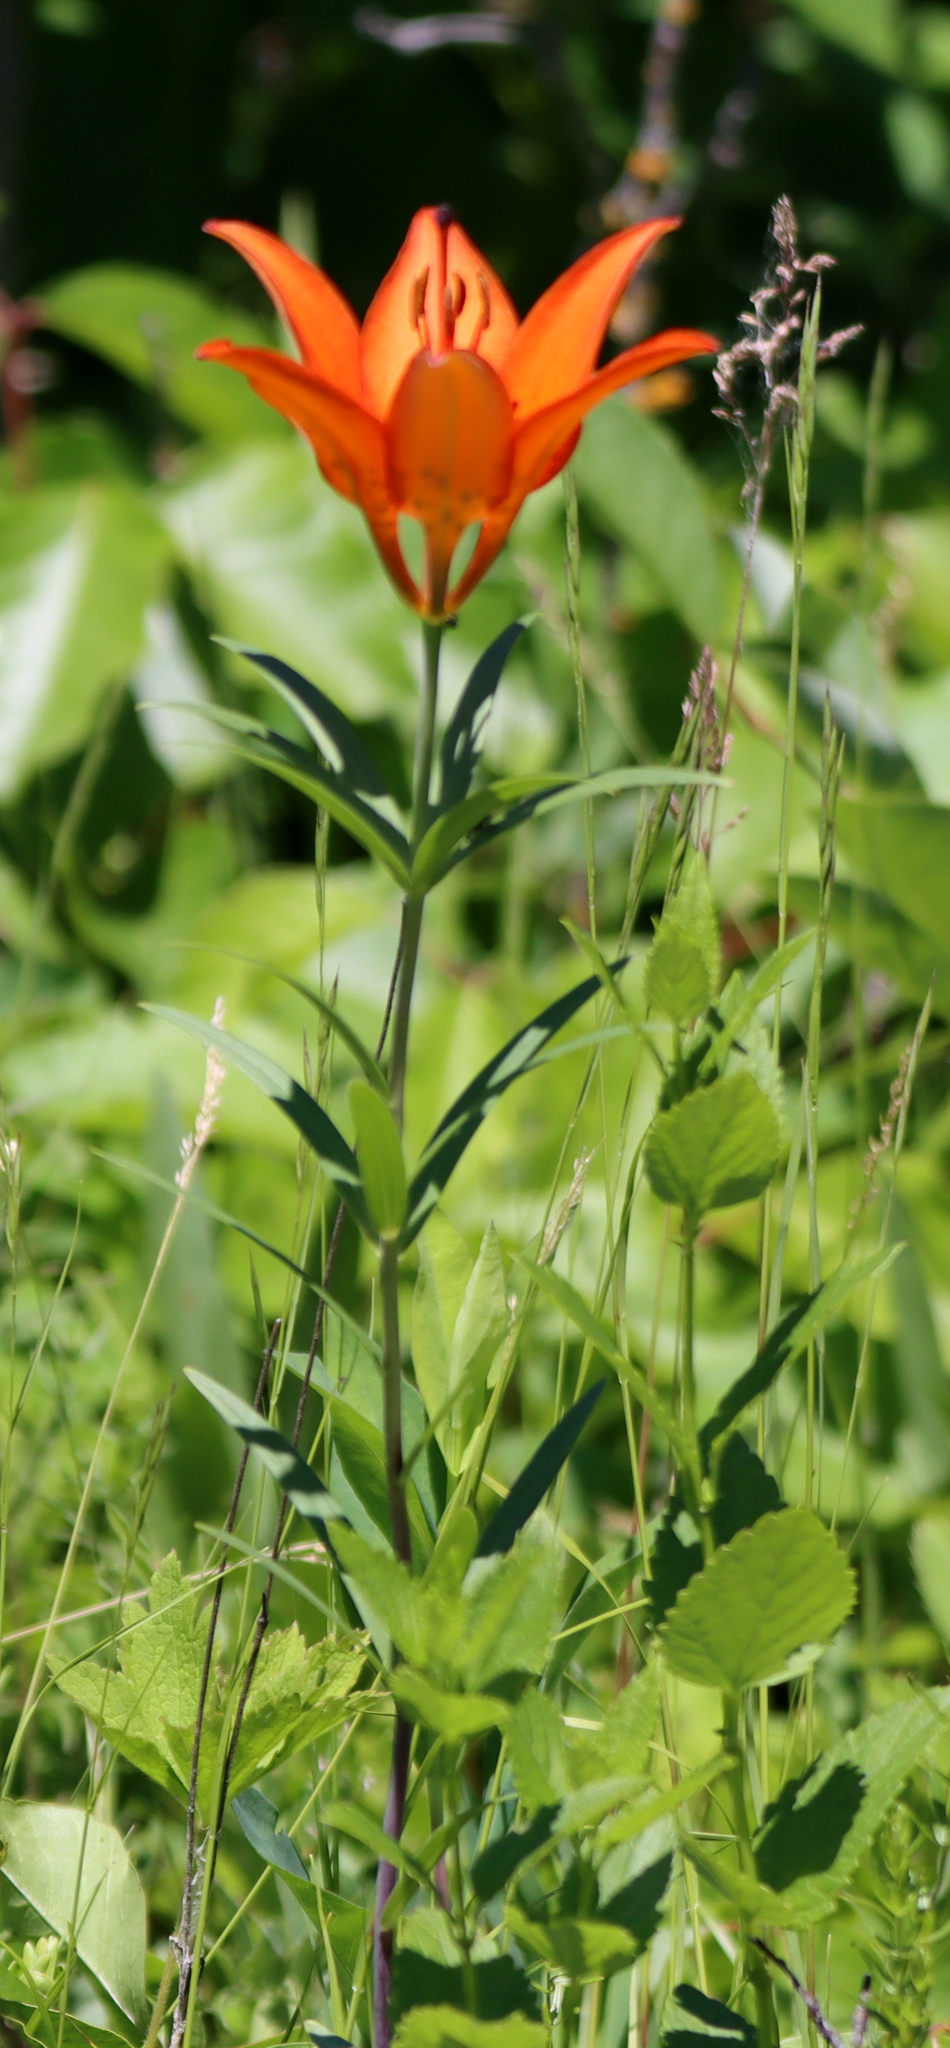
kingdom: Plantae
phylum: Tracheophyta
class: Liliopsida
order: Liliales
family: Liliaceae
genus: Lilium
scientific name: Lilium philadelphicum
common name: Red lily
